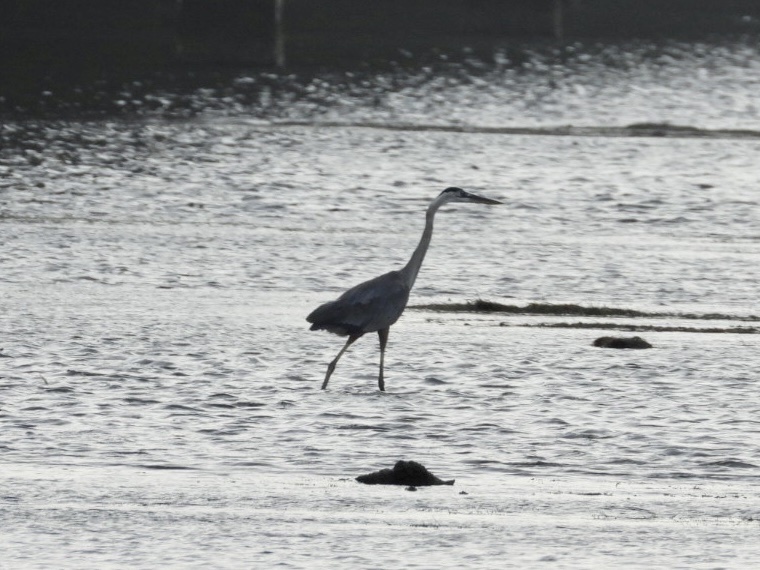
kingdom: Animalia
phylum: Chordata
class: Aves
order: Pelecaniformes
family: Ardeidae
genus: Ardea
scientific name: Ardea herodias
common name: Great blue heron
